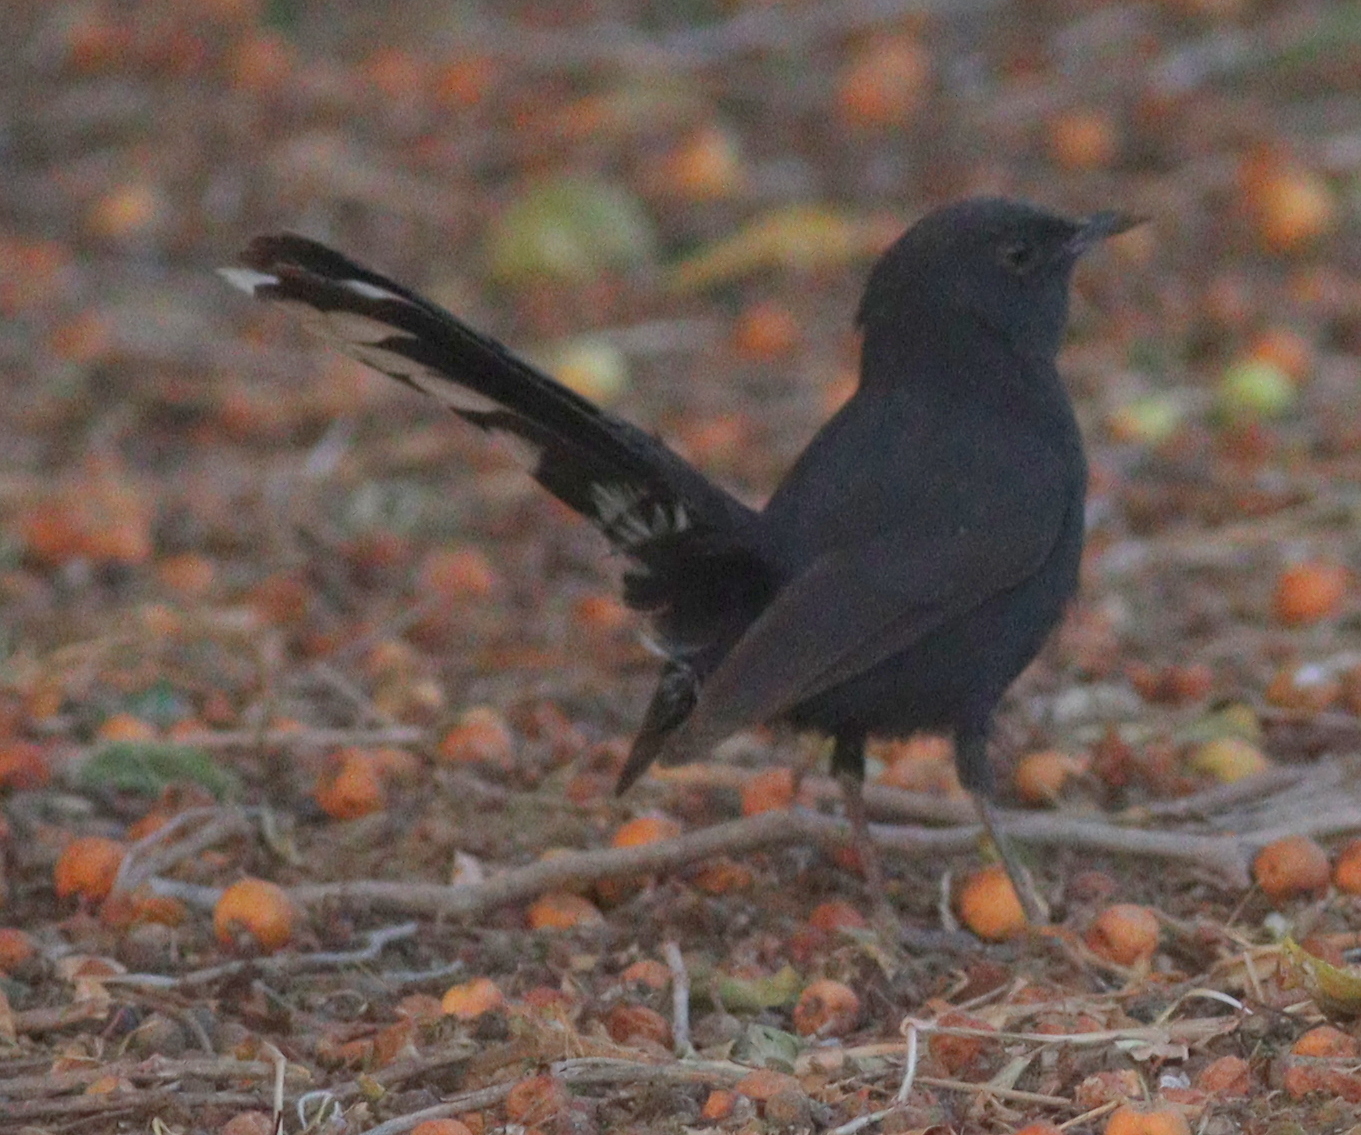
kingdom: Animalia
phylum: Chordata
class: Aves
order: Passeriformes
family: Muscicapidae
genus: Cercotrichas
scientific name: Cercotrichas podobe
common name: Black scrub robin
